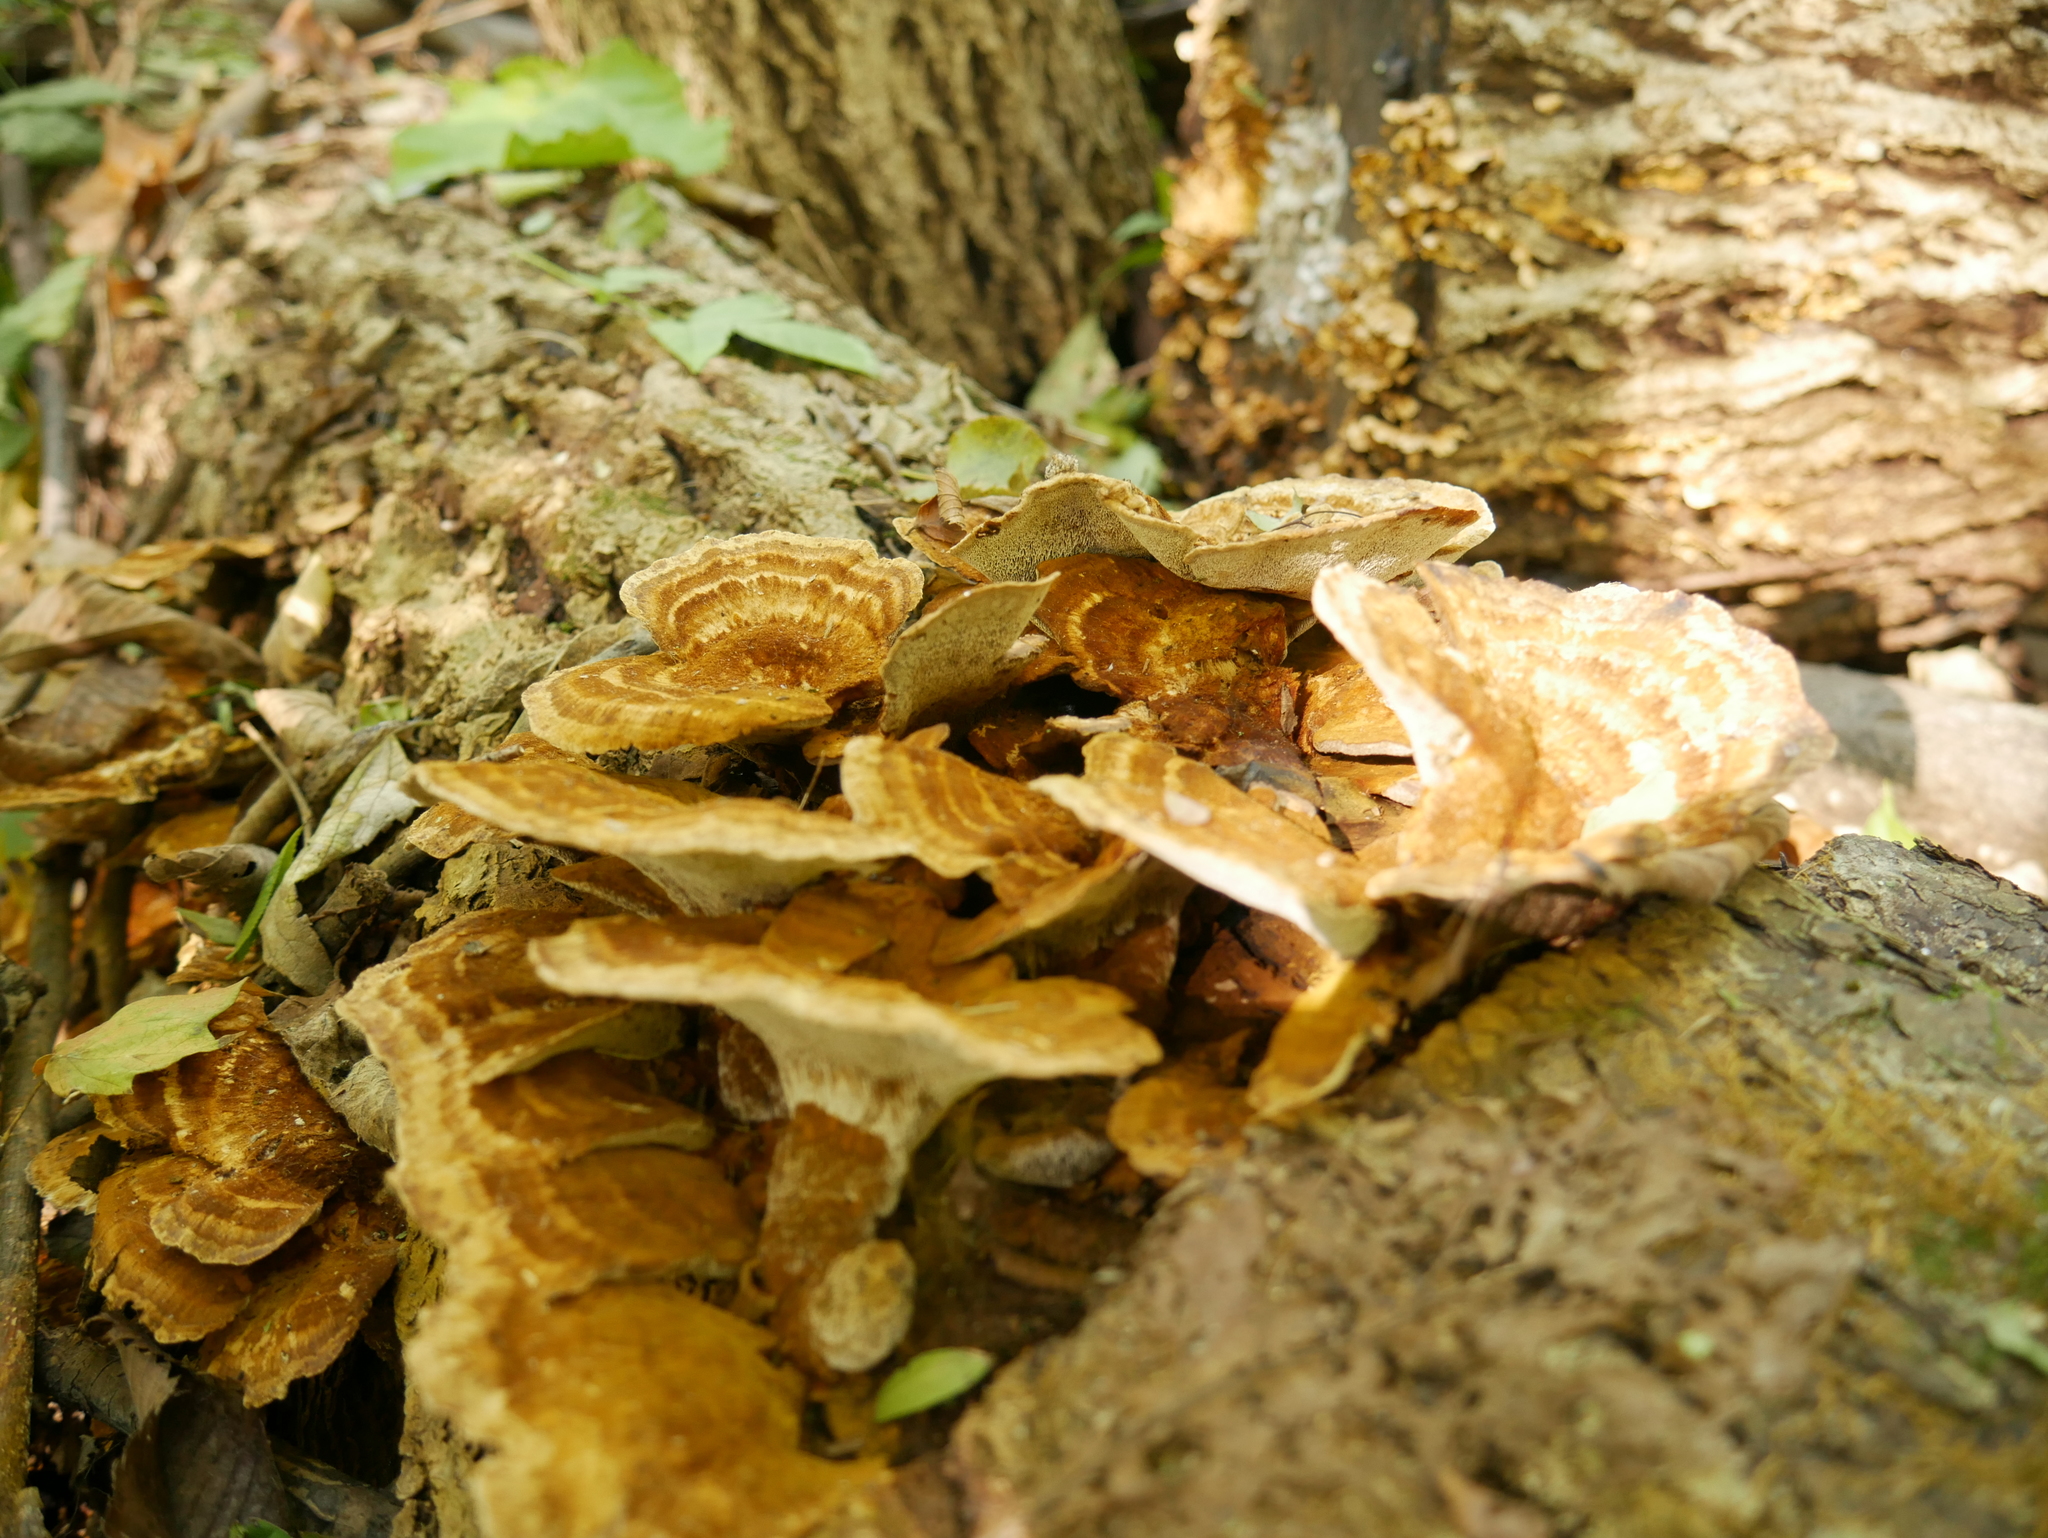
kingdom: Fungi
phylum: Basidiomycota
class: Agaricomycetes
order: Hymenochaetales
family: Hymenochaetaceae
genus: Inonotus
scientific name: Inonotus cuticularis
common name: Clustered bracket
